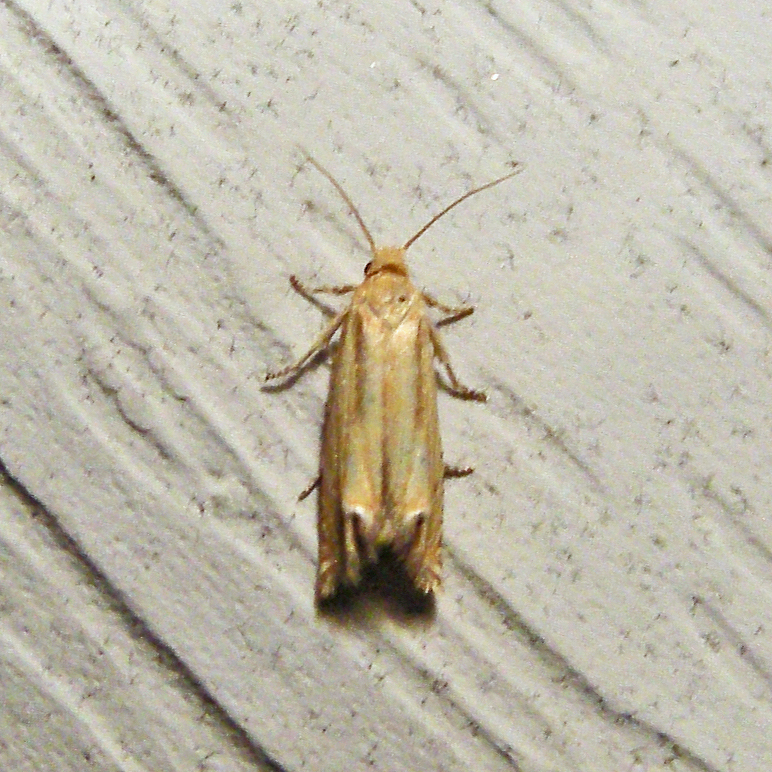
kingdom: Animalia
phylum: Arthropoda
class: Insecta
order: Lepidoptera
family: Tortricidae
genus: Pelochrista
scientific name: Pelochrista cataclystiana
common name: Goldenrod pelochrista moth
